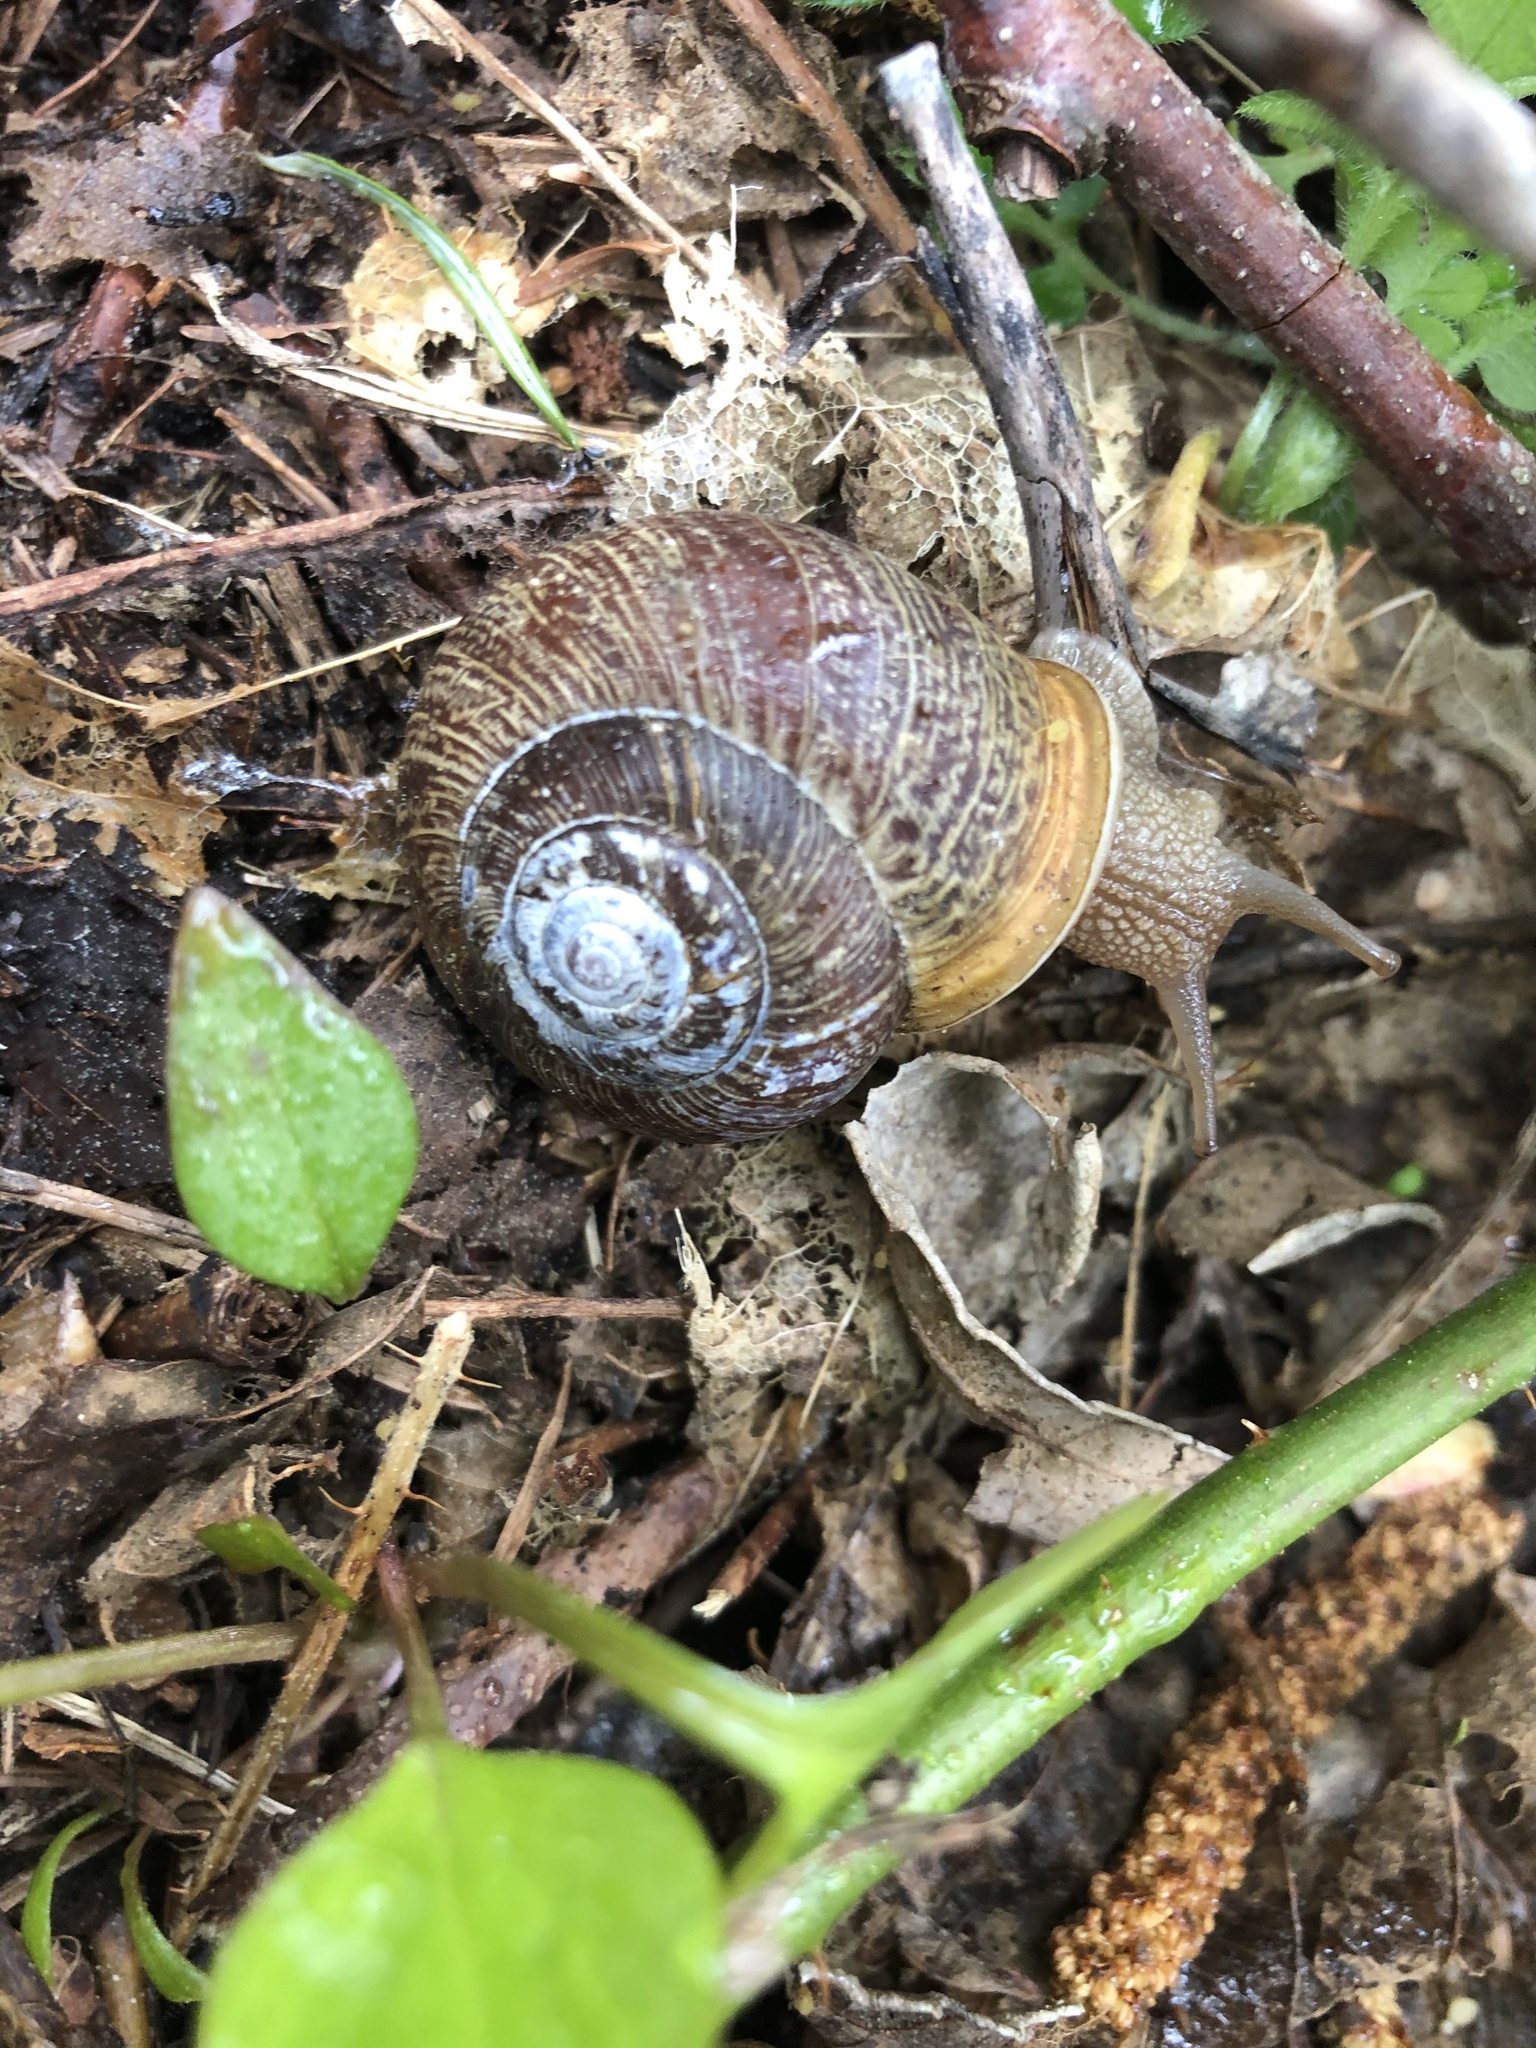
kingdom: Animalia
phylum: Mollusca
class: Gastropoda
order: Stylommatophora
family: Polygyridae
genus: Allogona
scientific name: Allogona townsendiana
